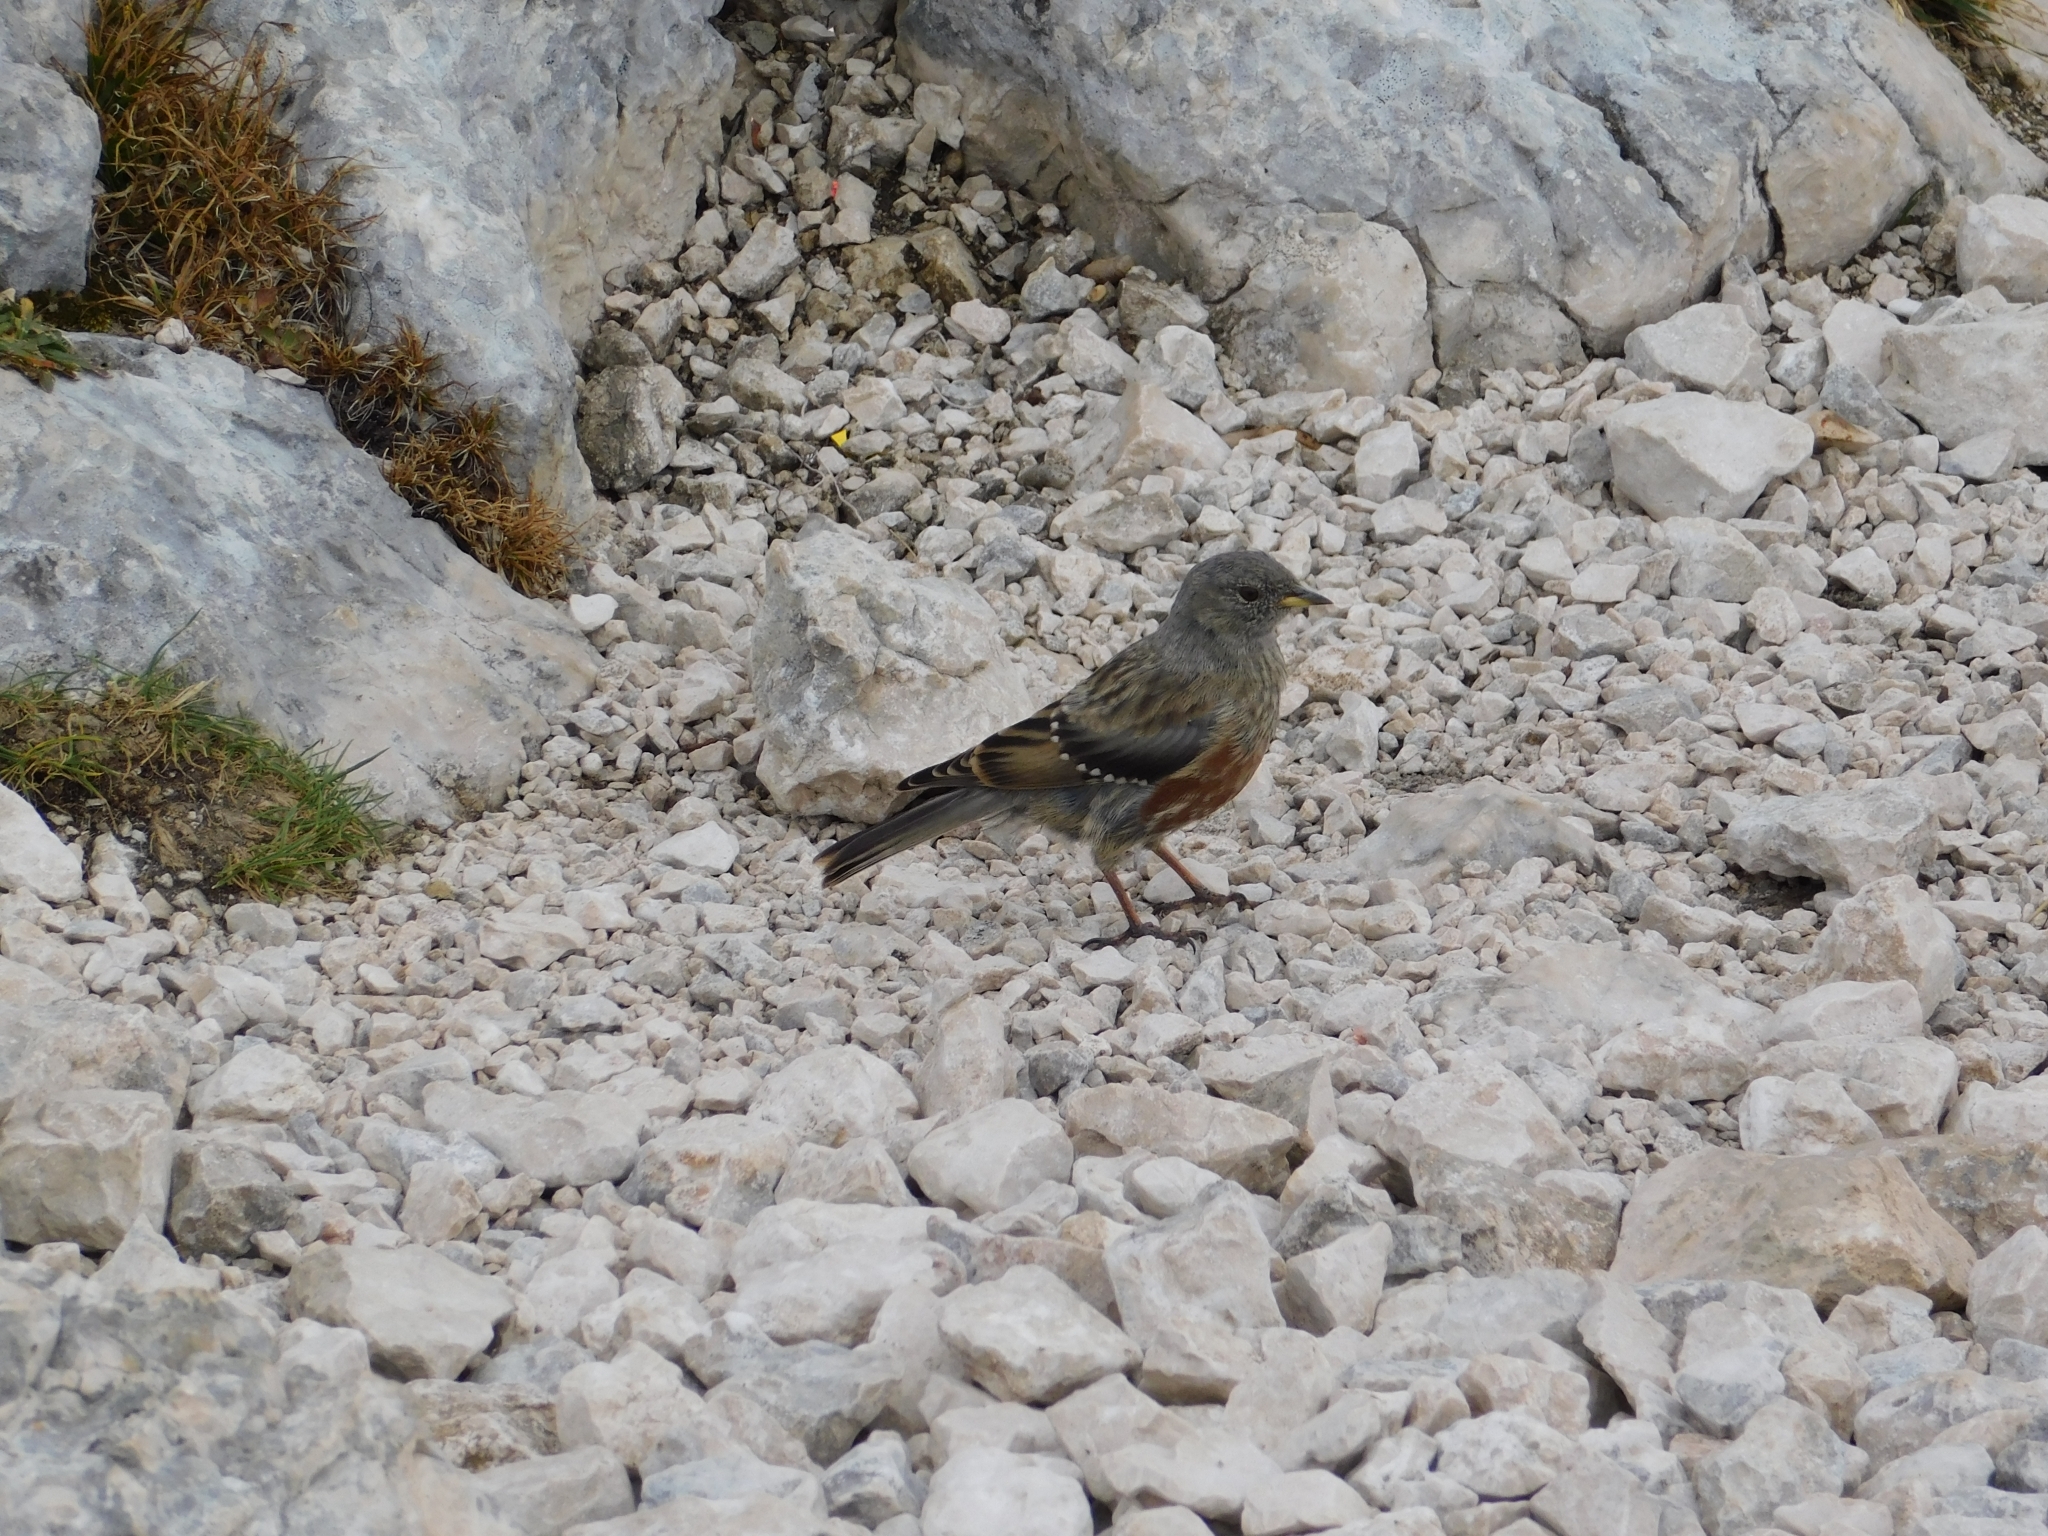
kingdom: Animalia
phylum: Chordata
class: Aves
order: Passeriformes
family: Prunellidae
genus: Prunella
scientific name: Prunella collaris
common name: Alpine accentor
